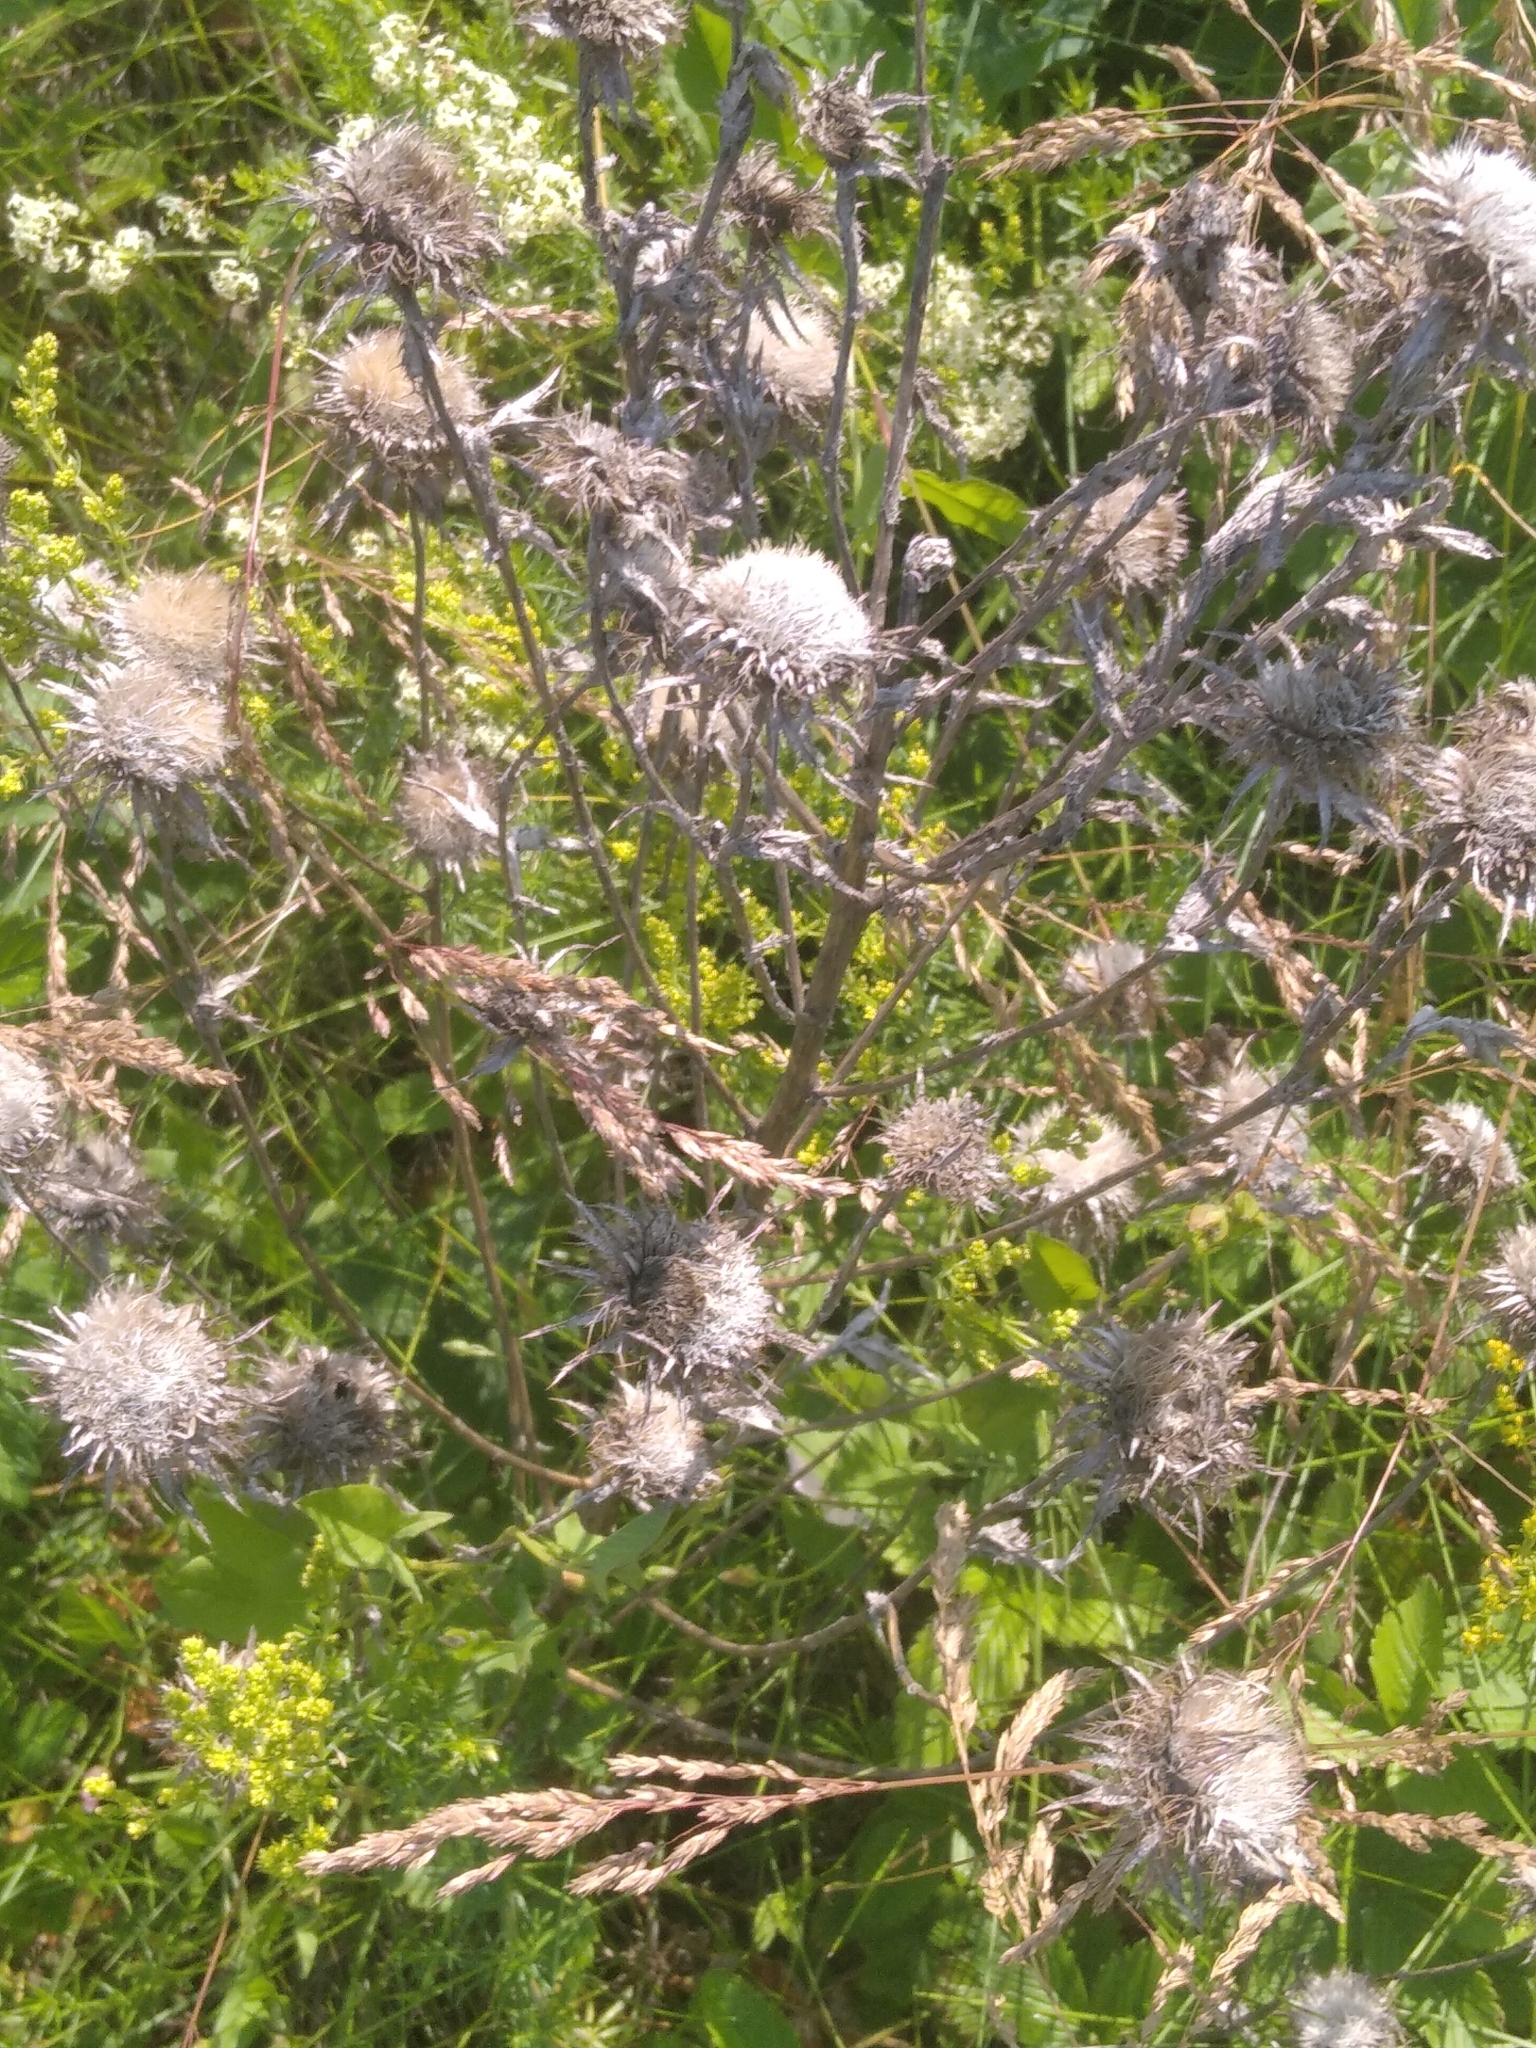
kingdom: Plantae
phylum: Tracheophyta
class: Magnoliopsida
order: Asterales
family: Asteraceae
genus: Carlina
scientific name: Carlina biebersteinii
